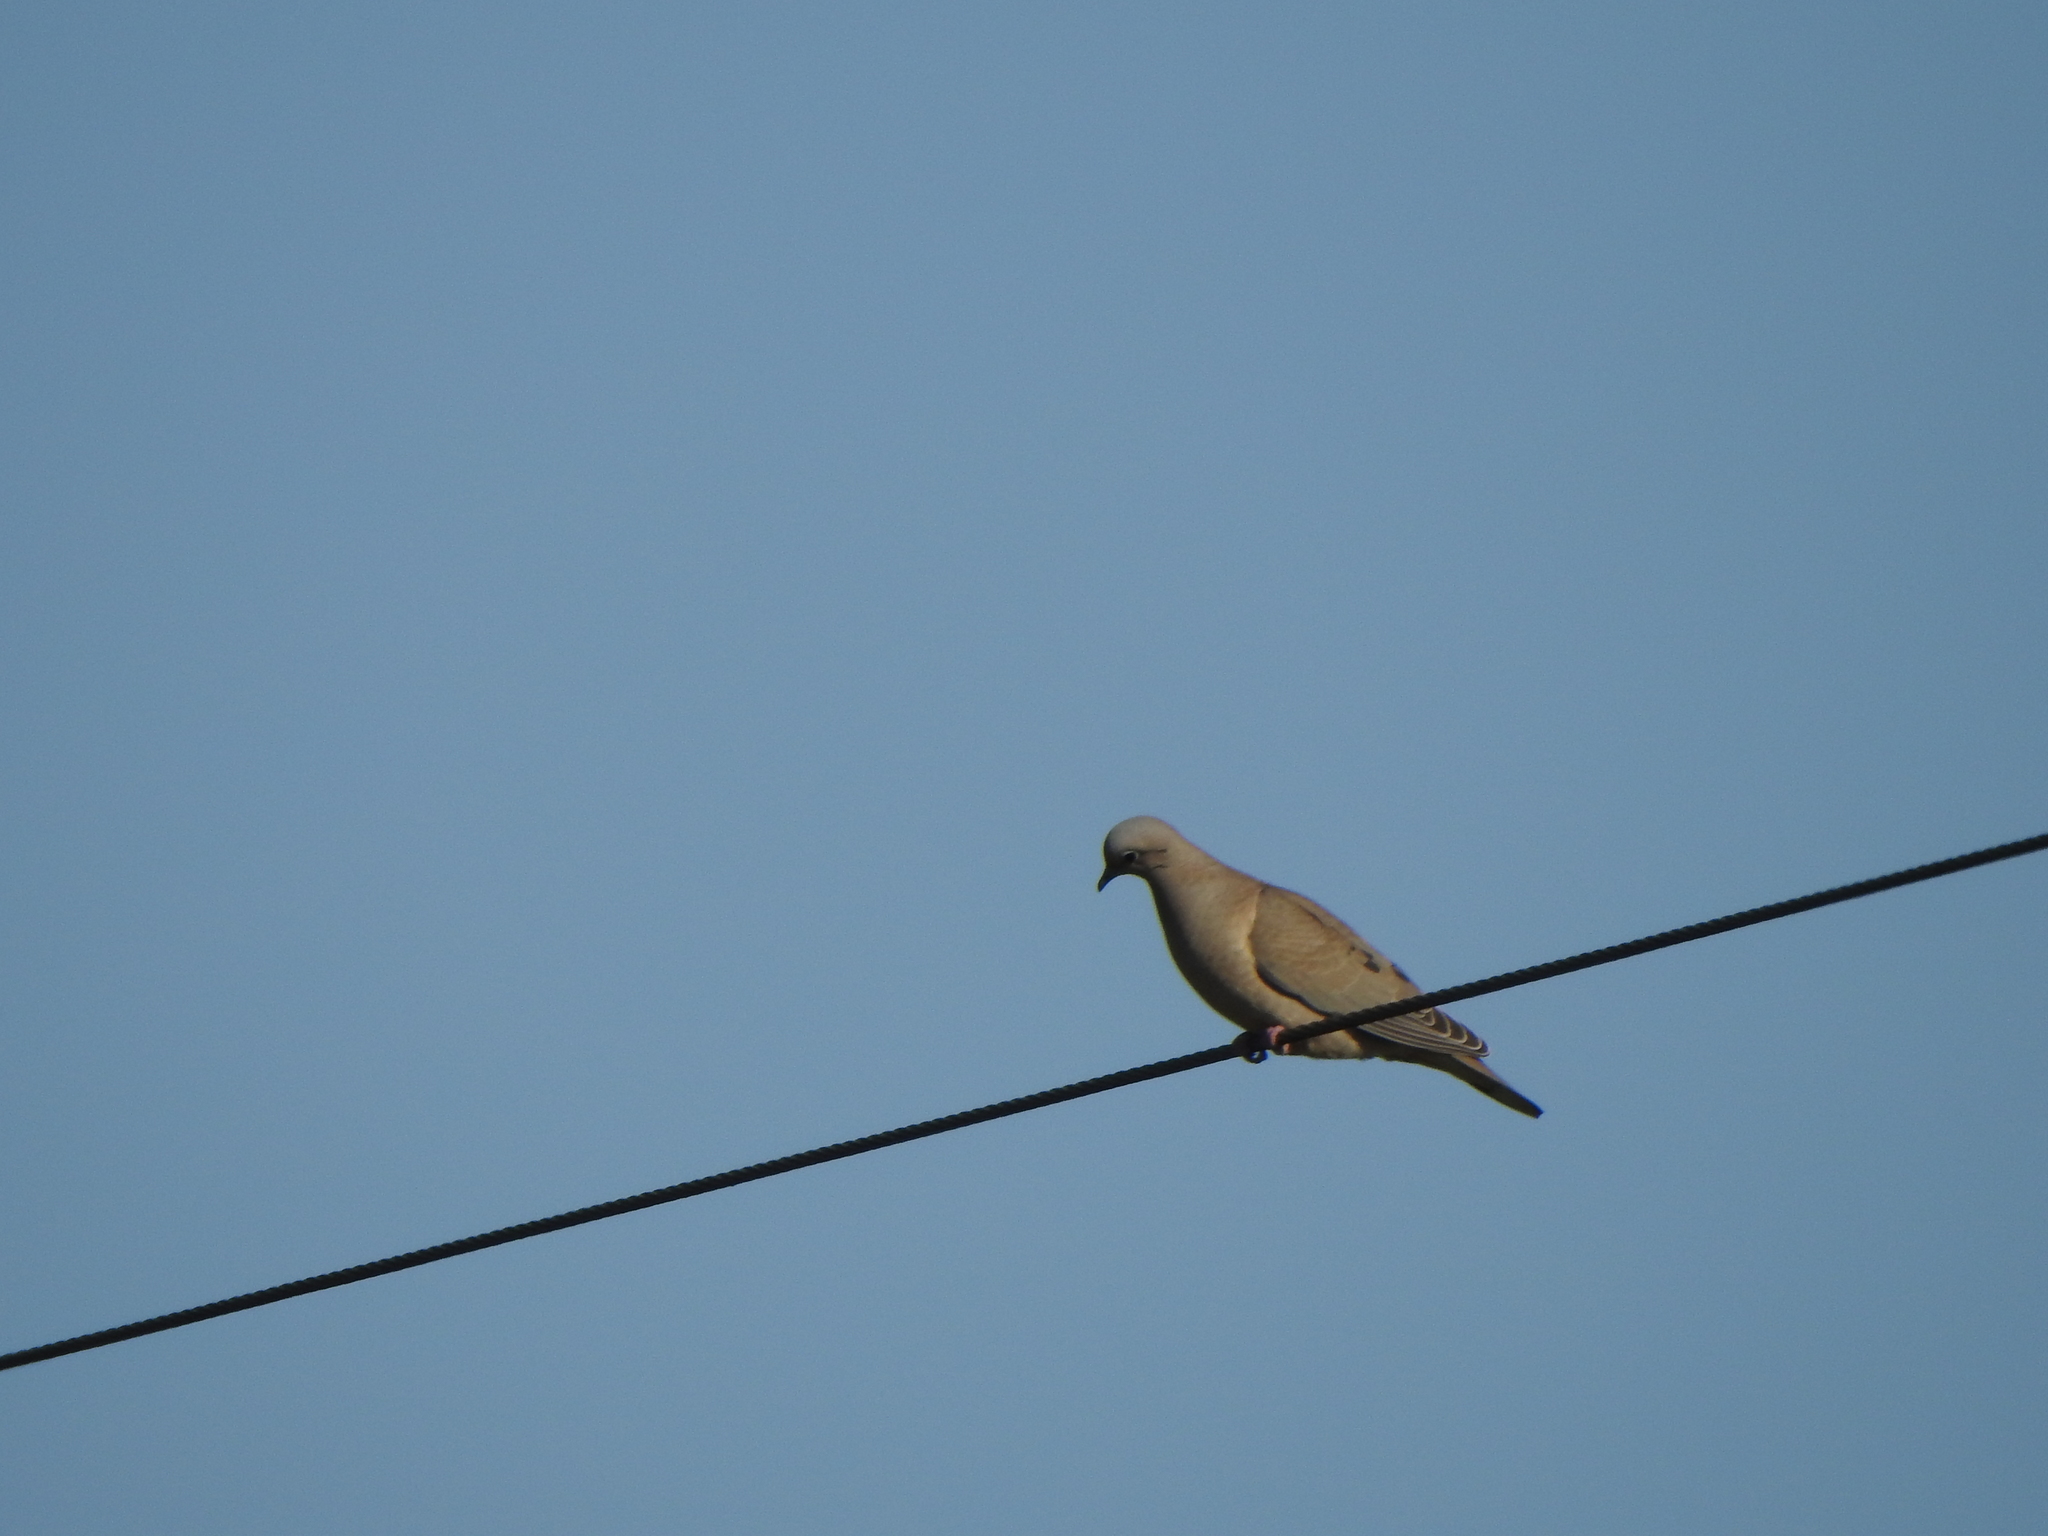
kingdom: Animalia
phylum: Chordata
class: Aves
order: Columbiformes
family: Columbidae
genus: Zenaida
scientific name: Zenaida auriculata
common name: Eared dove
